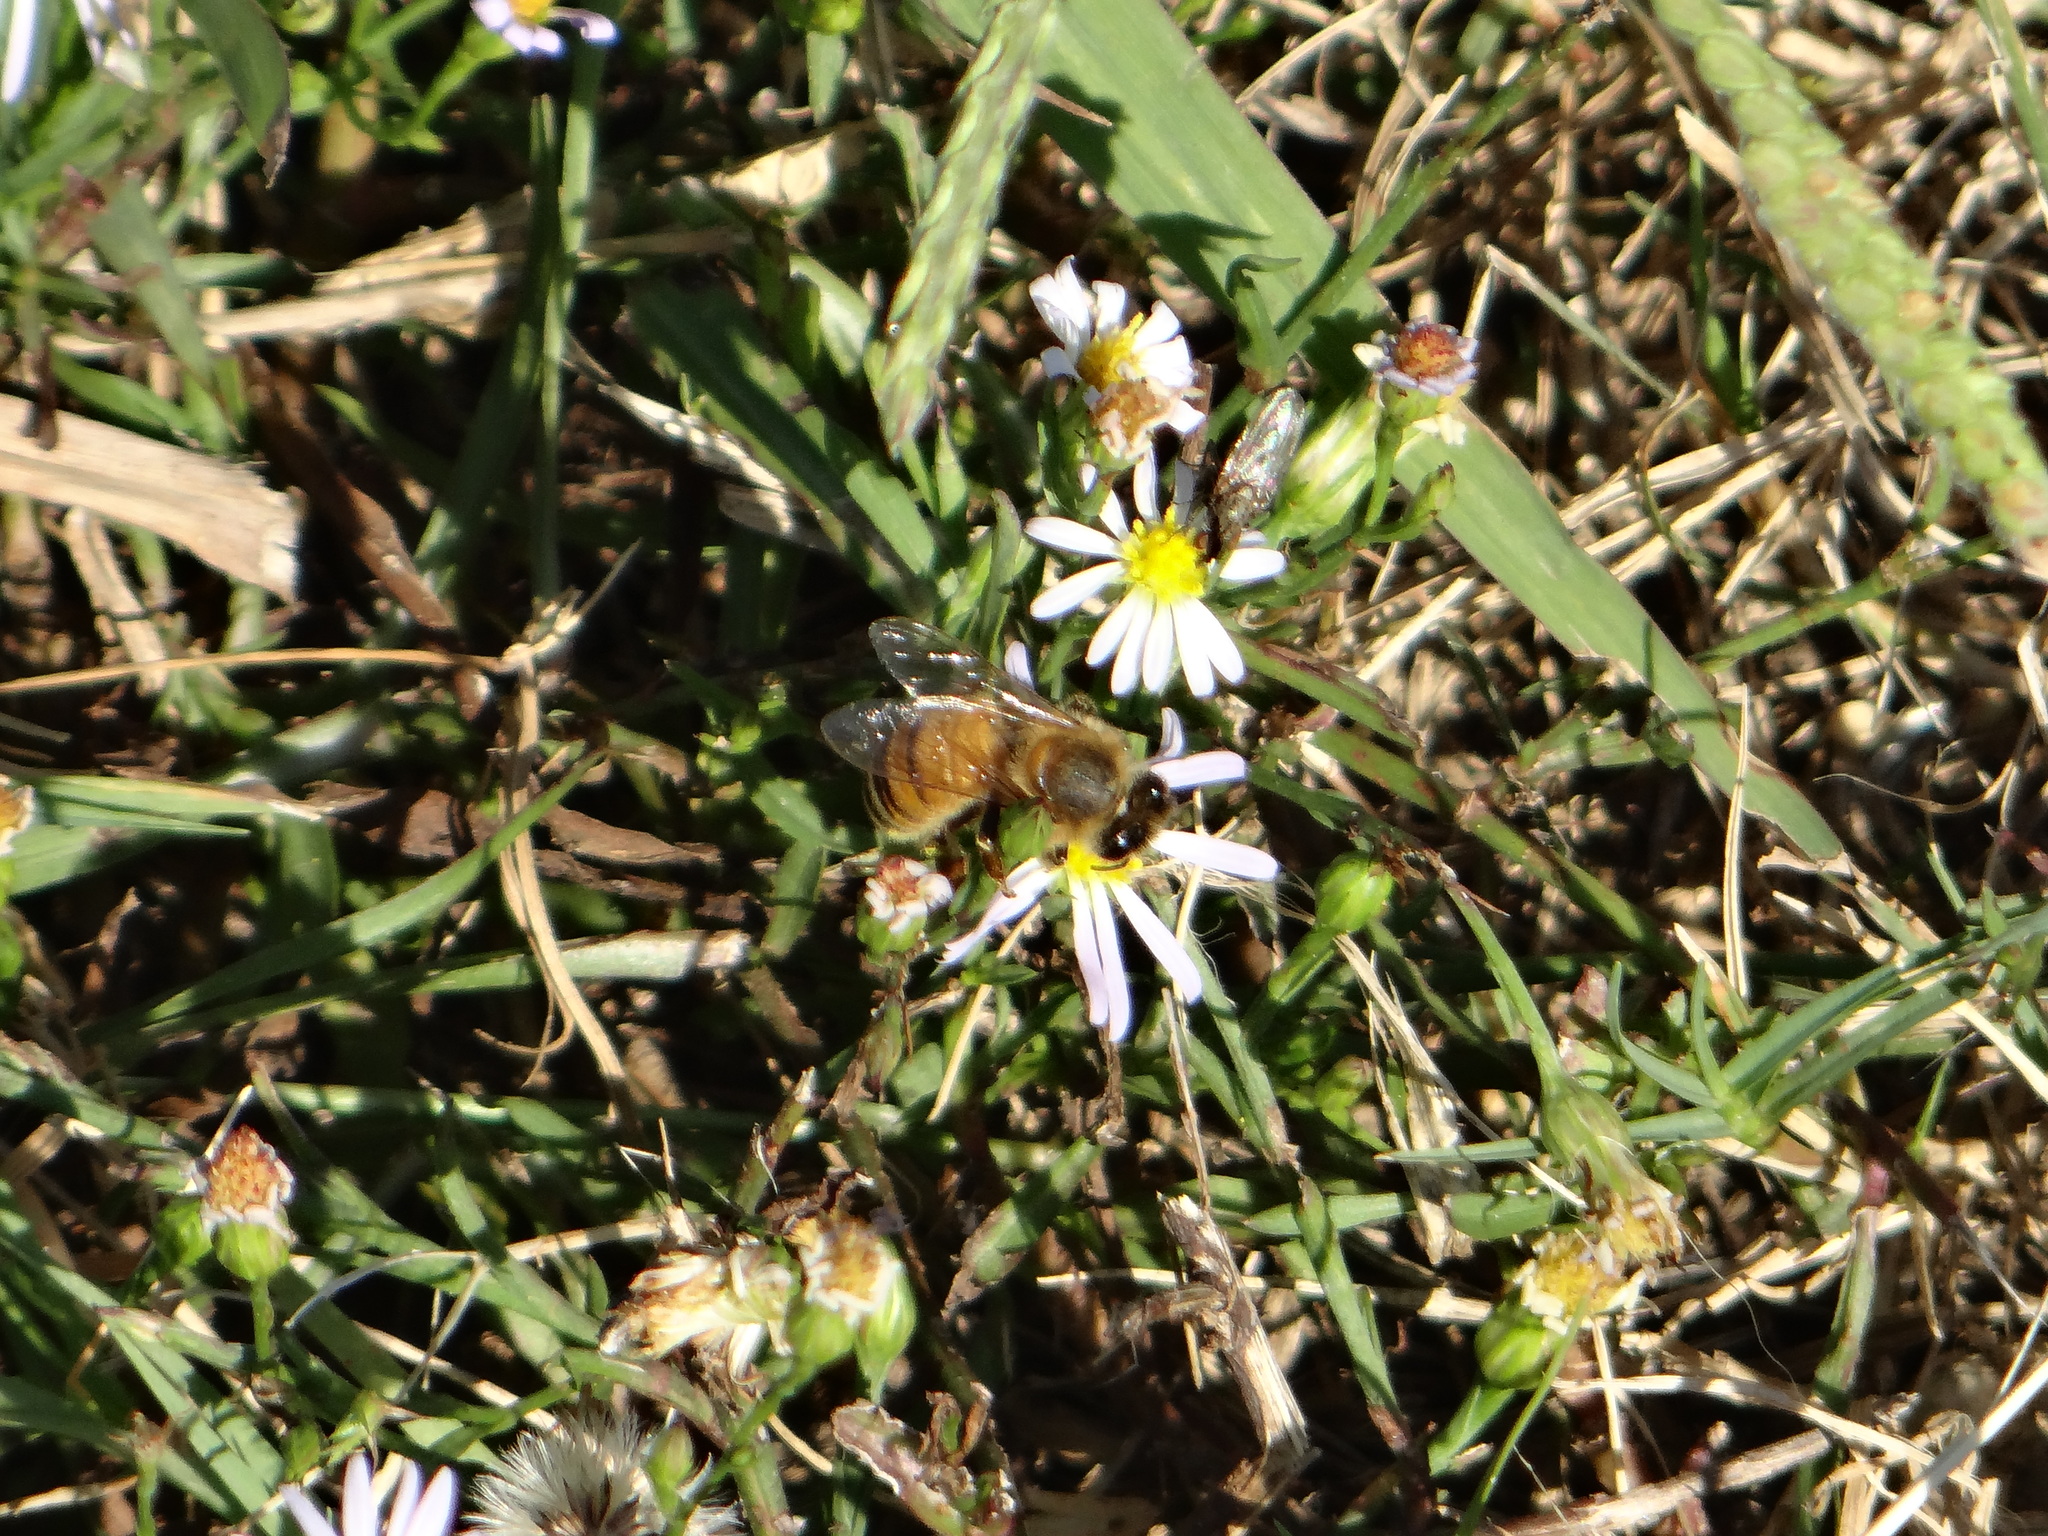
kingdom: Animalia
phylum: Arthropoda
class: Insecta
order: Hymenoptera
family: Apidae
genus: Apis
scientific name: Apis mellifera
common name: Honey bee
